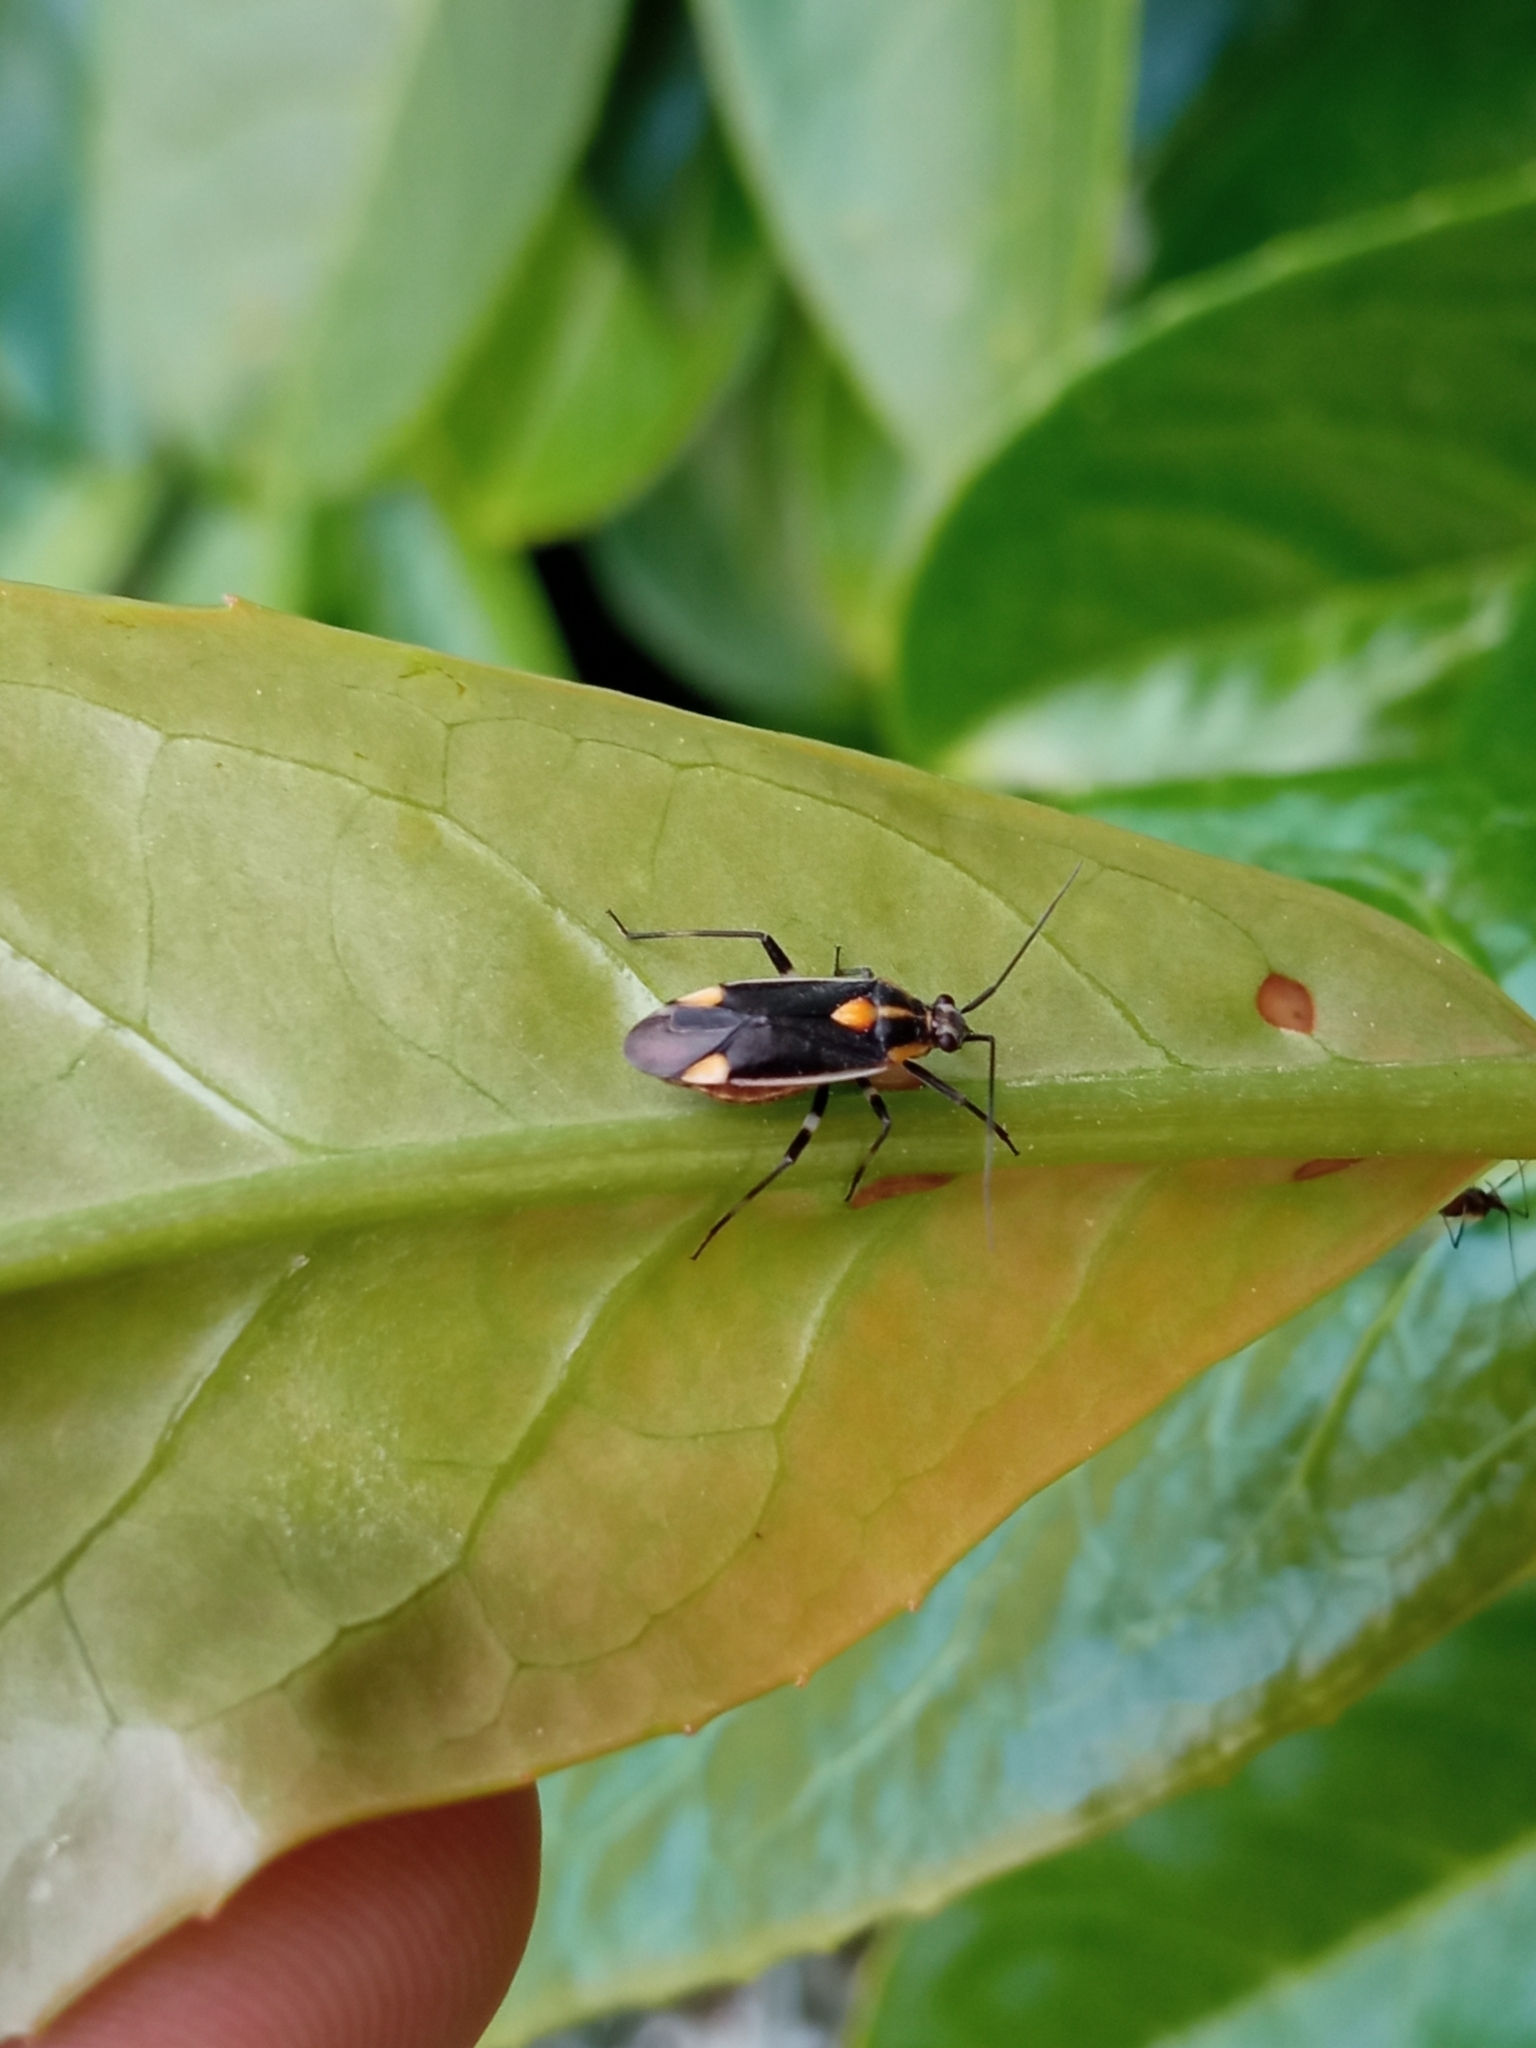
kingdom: Animalia
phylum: Arthropoda
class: Insecta
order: Hemiptera
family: Miridae
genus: Capsodes
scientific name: Capsodes flavomarginatus
